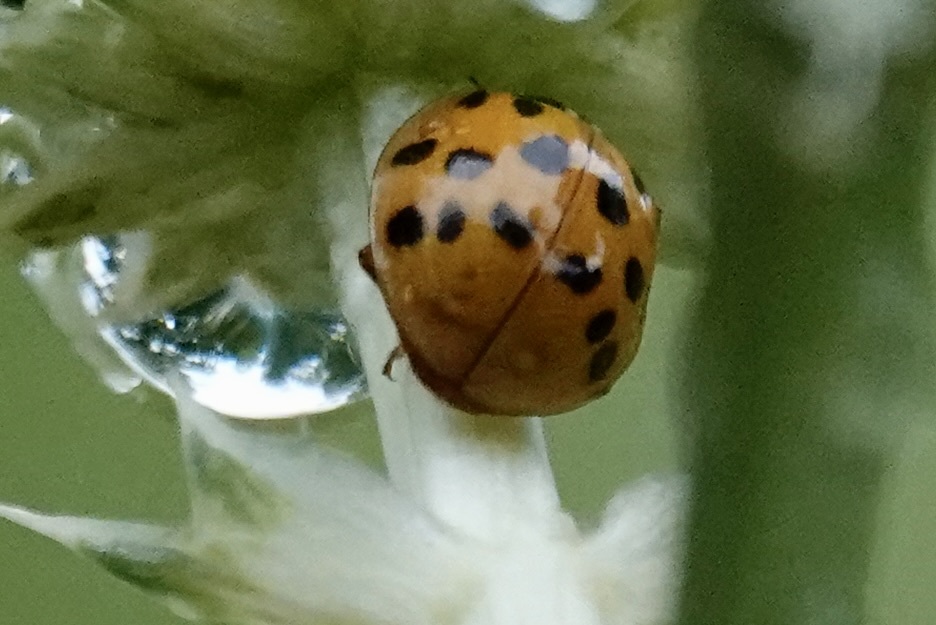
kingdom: Animalia
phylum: Arthropoda
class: Insecta
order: Coleoptera
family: Coccinellidae
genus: Harmonia
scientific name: Harmonia axyridis
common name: Harlequin ladybird
